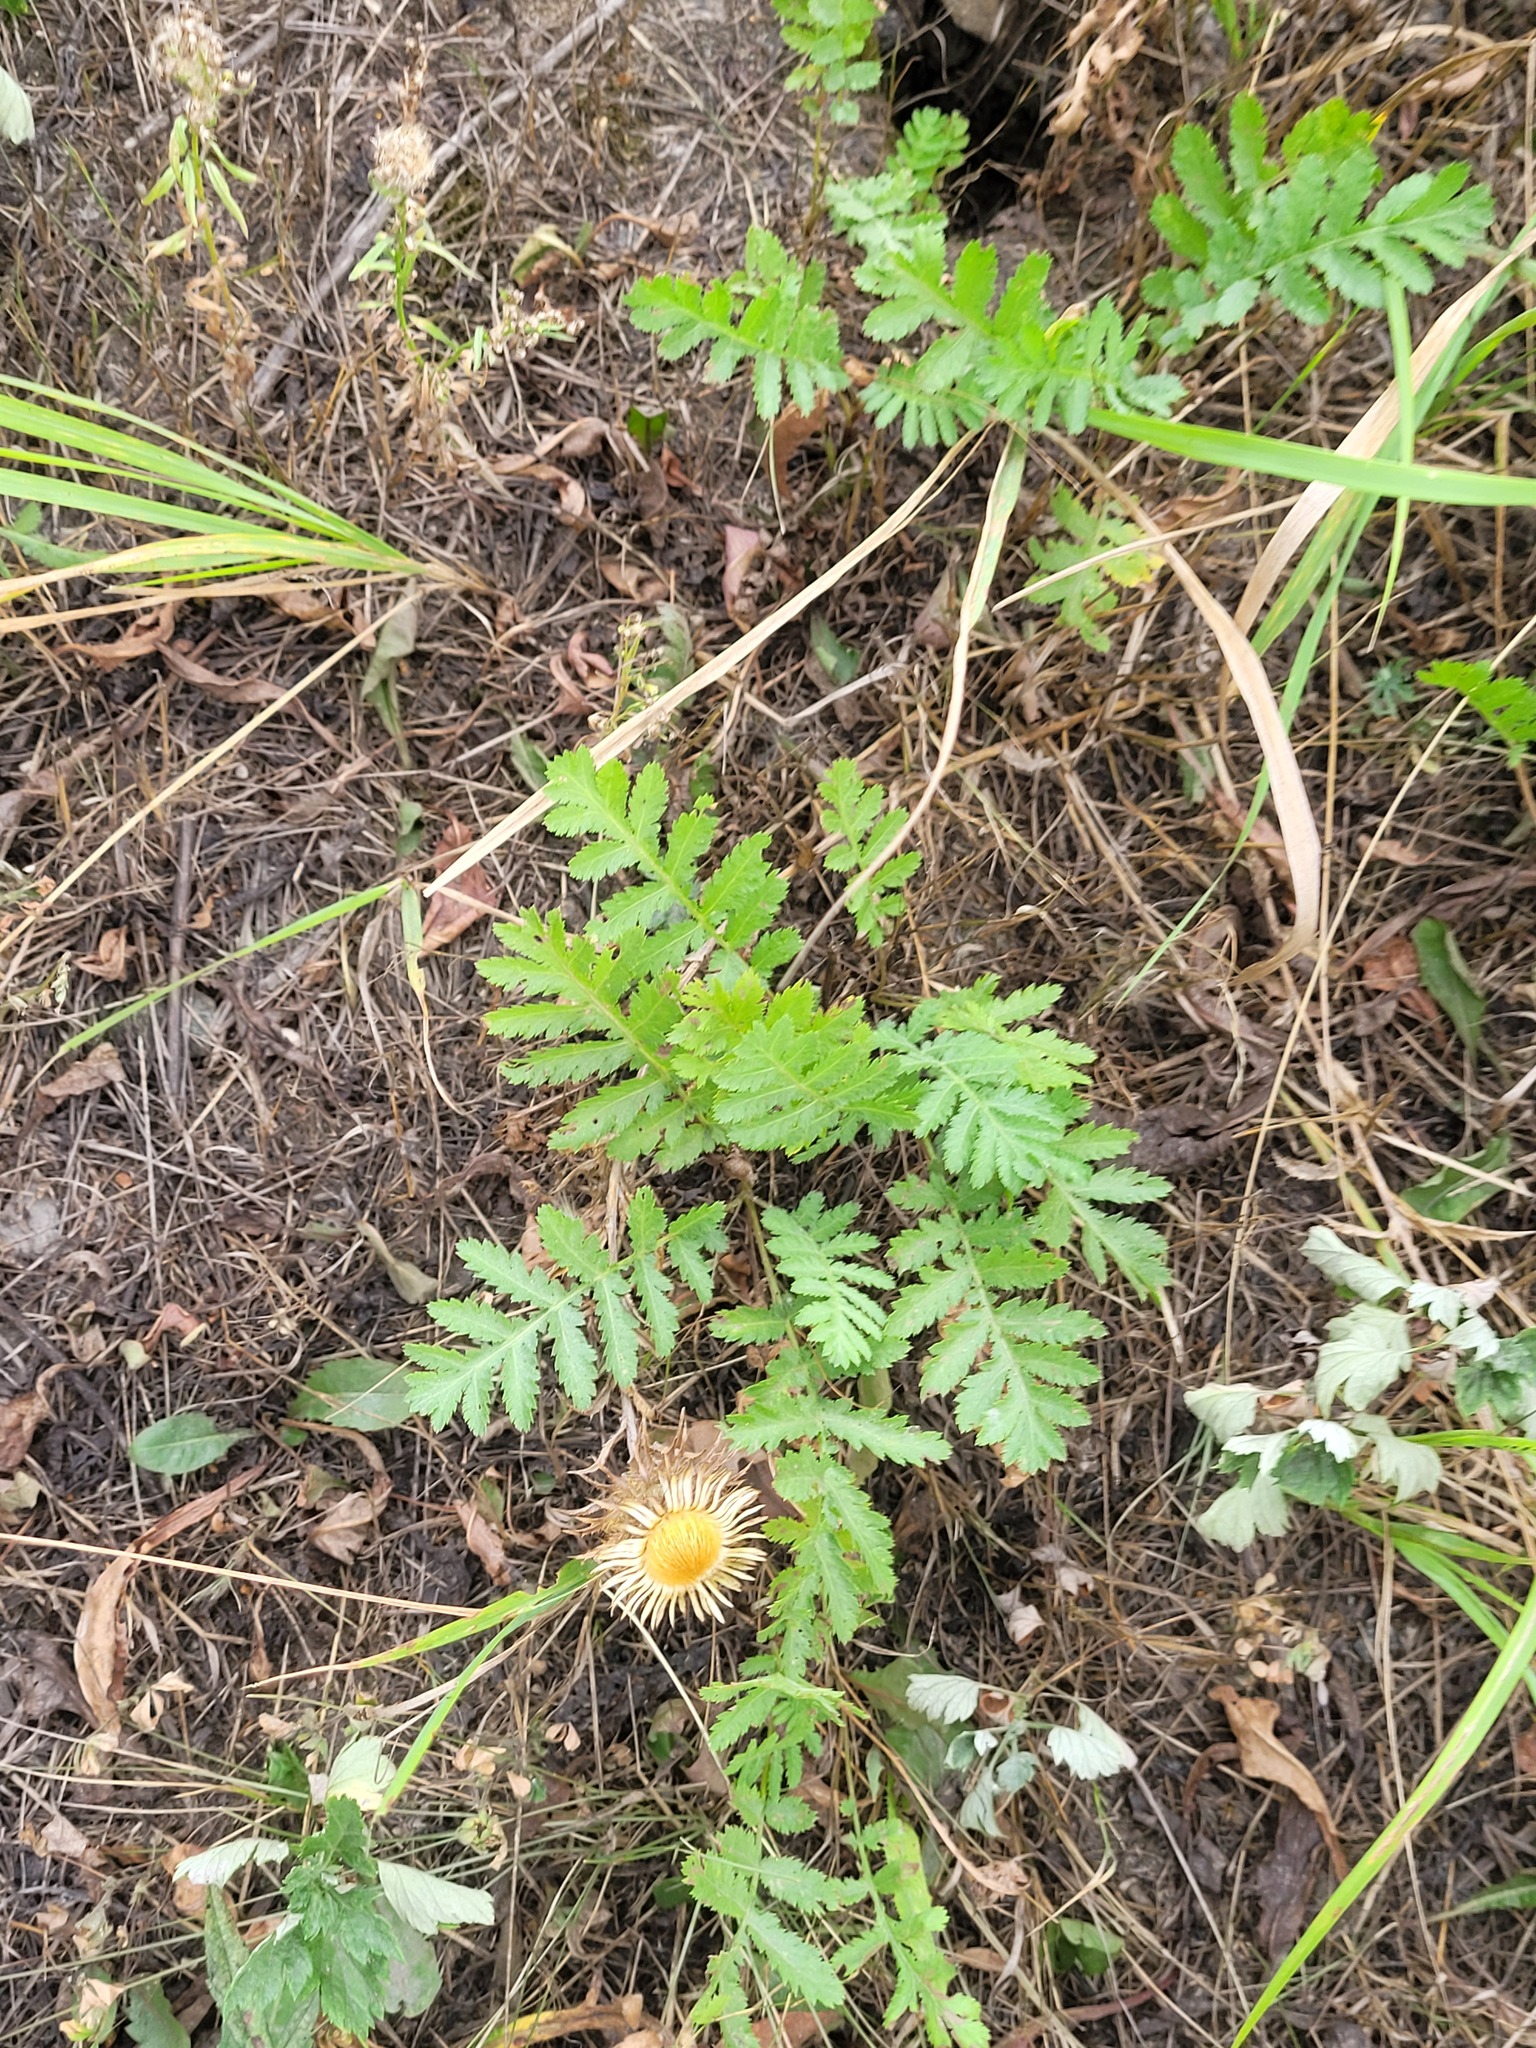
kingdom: Plantae
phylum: Tracheophyta
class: Magnoliopsida
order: Asterales
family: Asteraceae
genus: Tanacetum
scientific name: Tanacetum vulgare
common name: Common tansy
